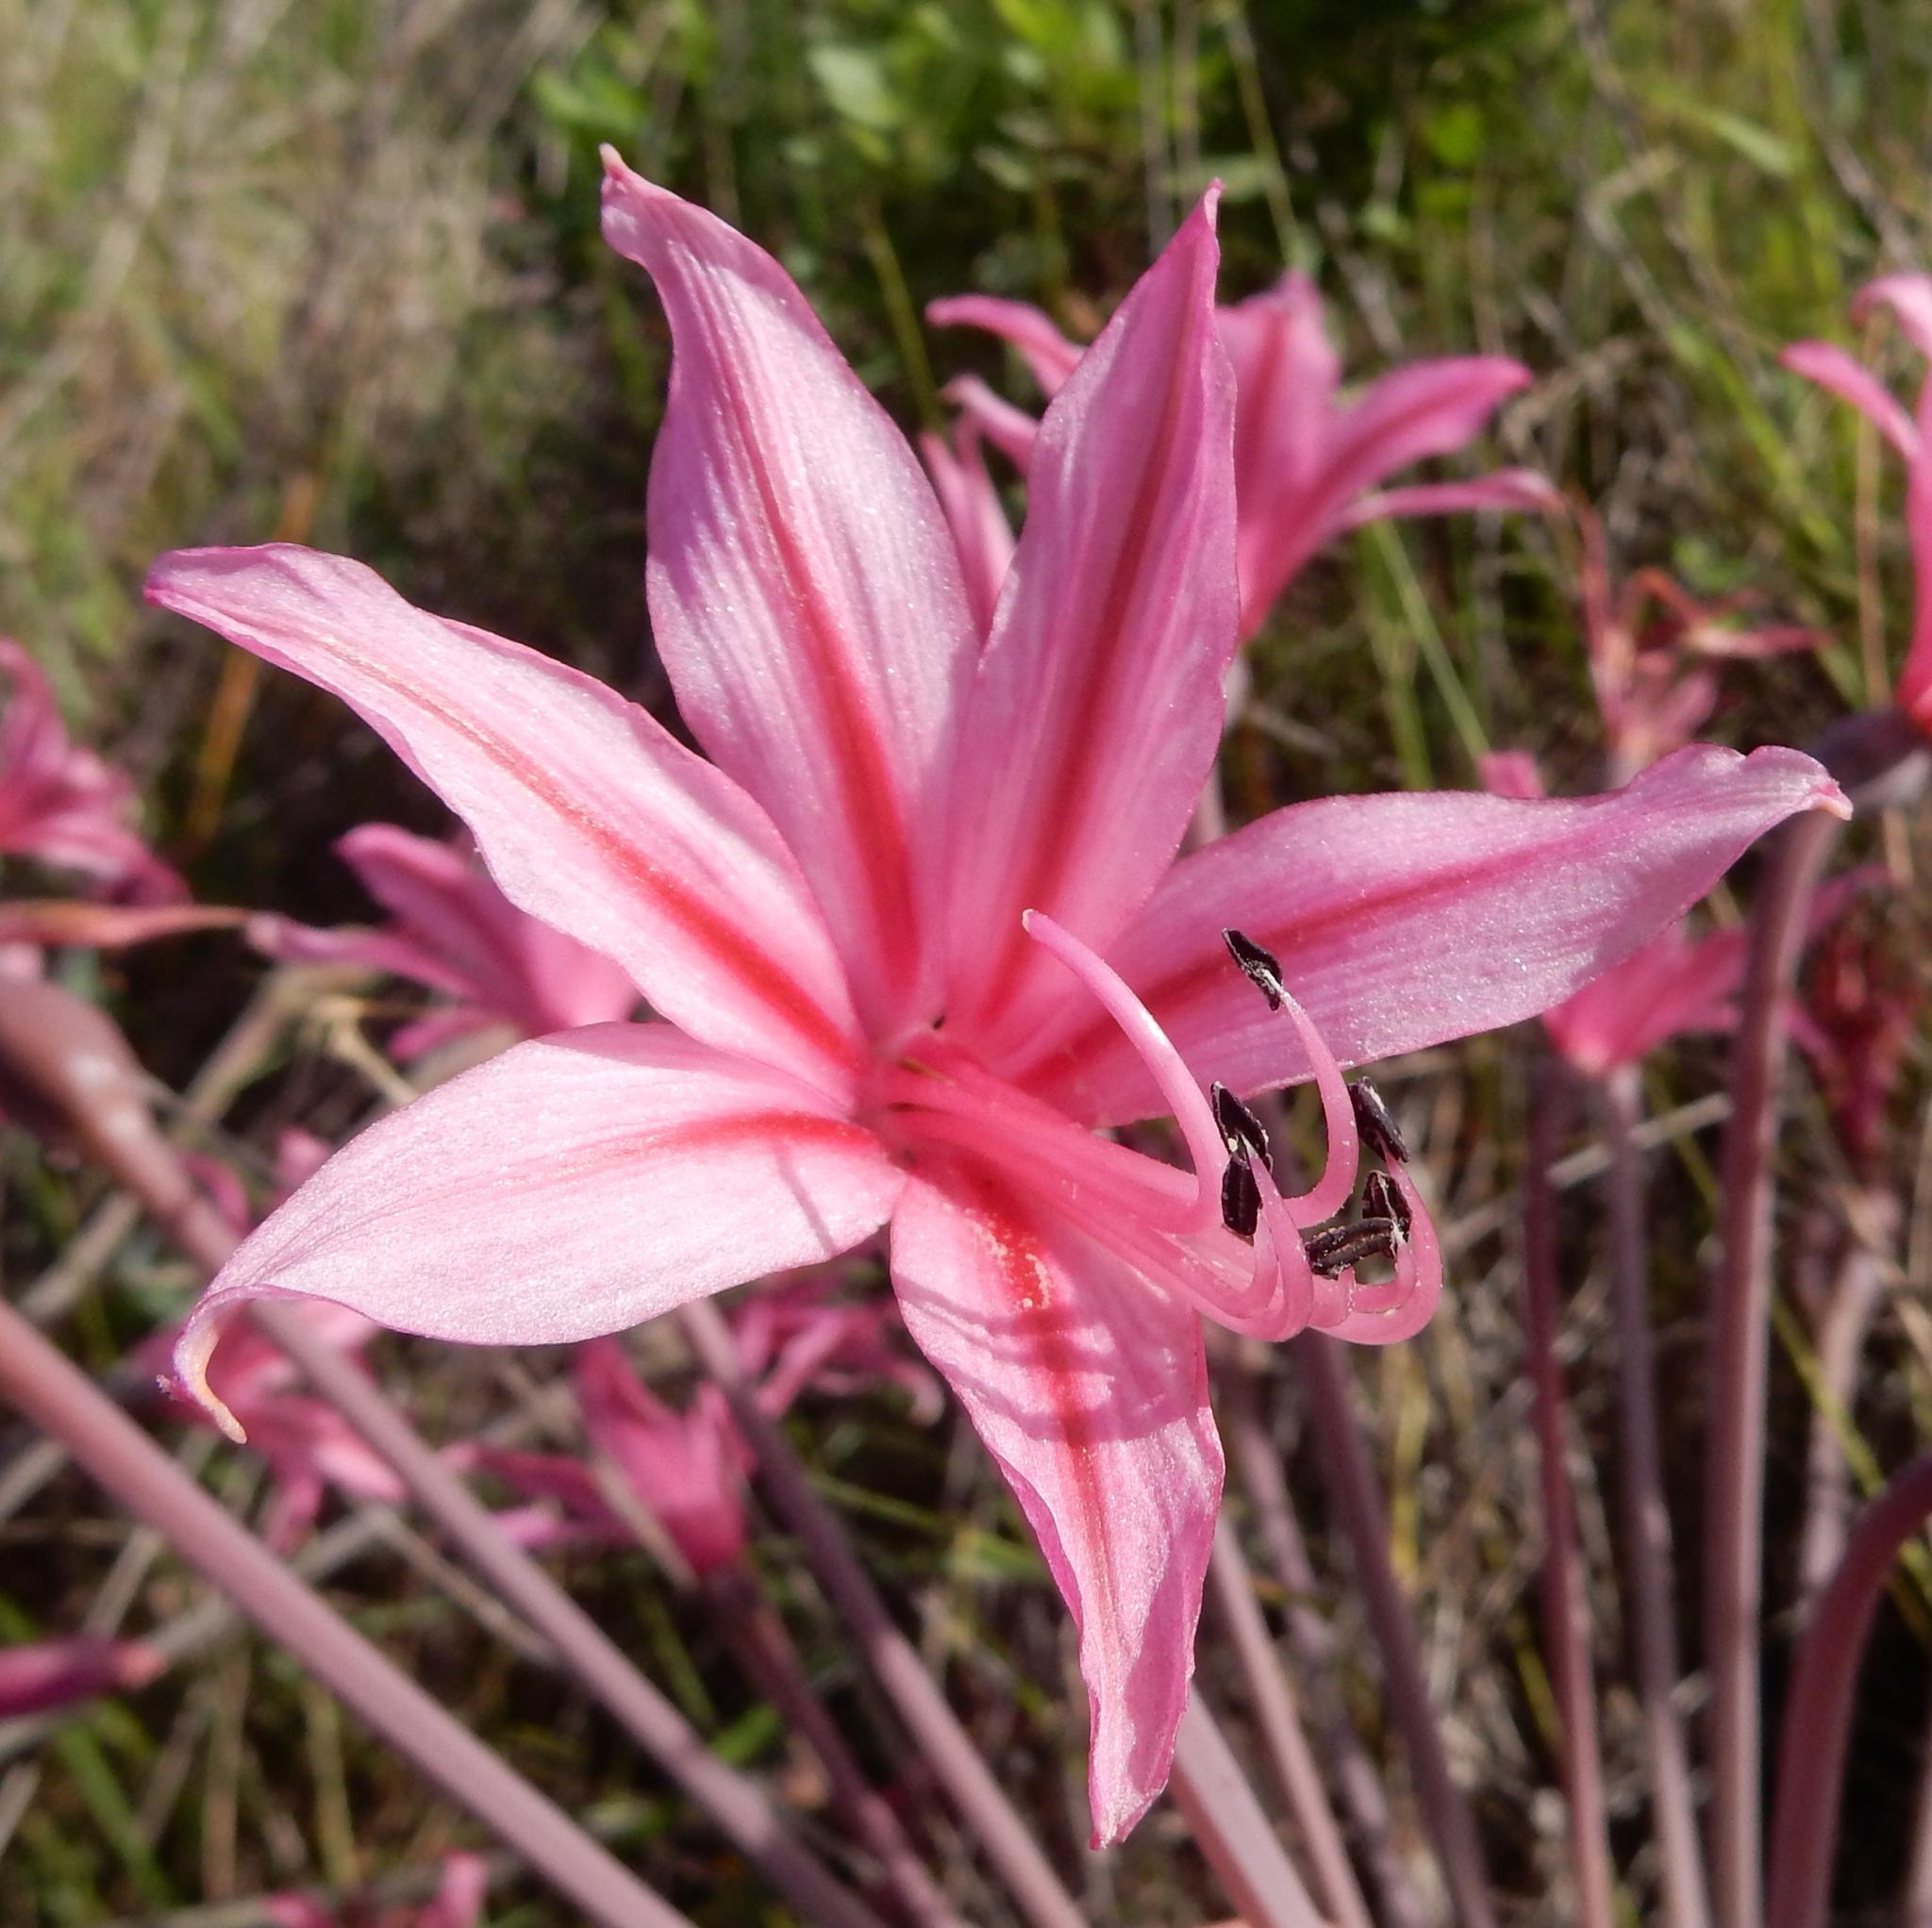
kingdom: Plantae
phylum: Tracheophyta
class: Liliopsida
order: Asparagales
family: Amaryllidaceae
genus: Brunsvigia
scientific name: Brunsvigia grandiflora
